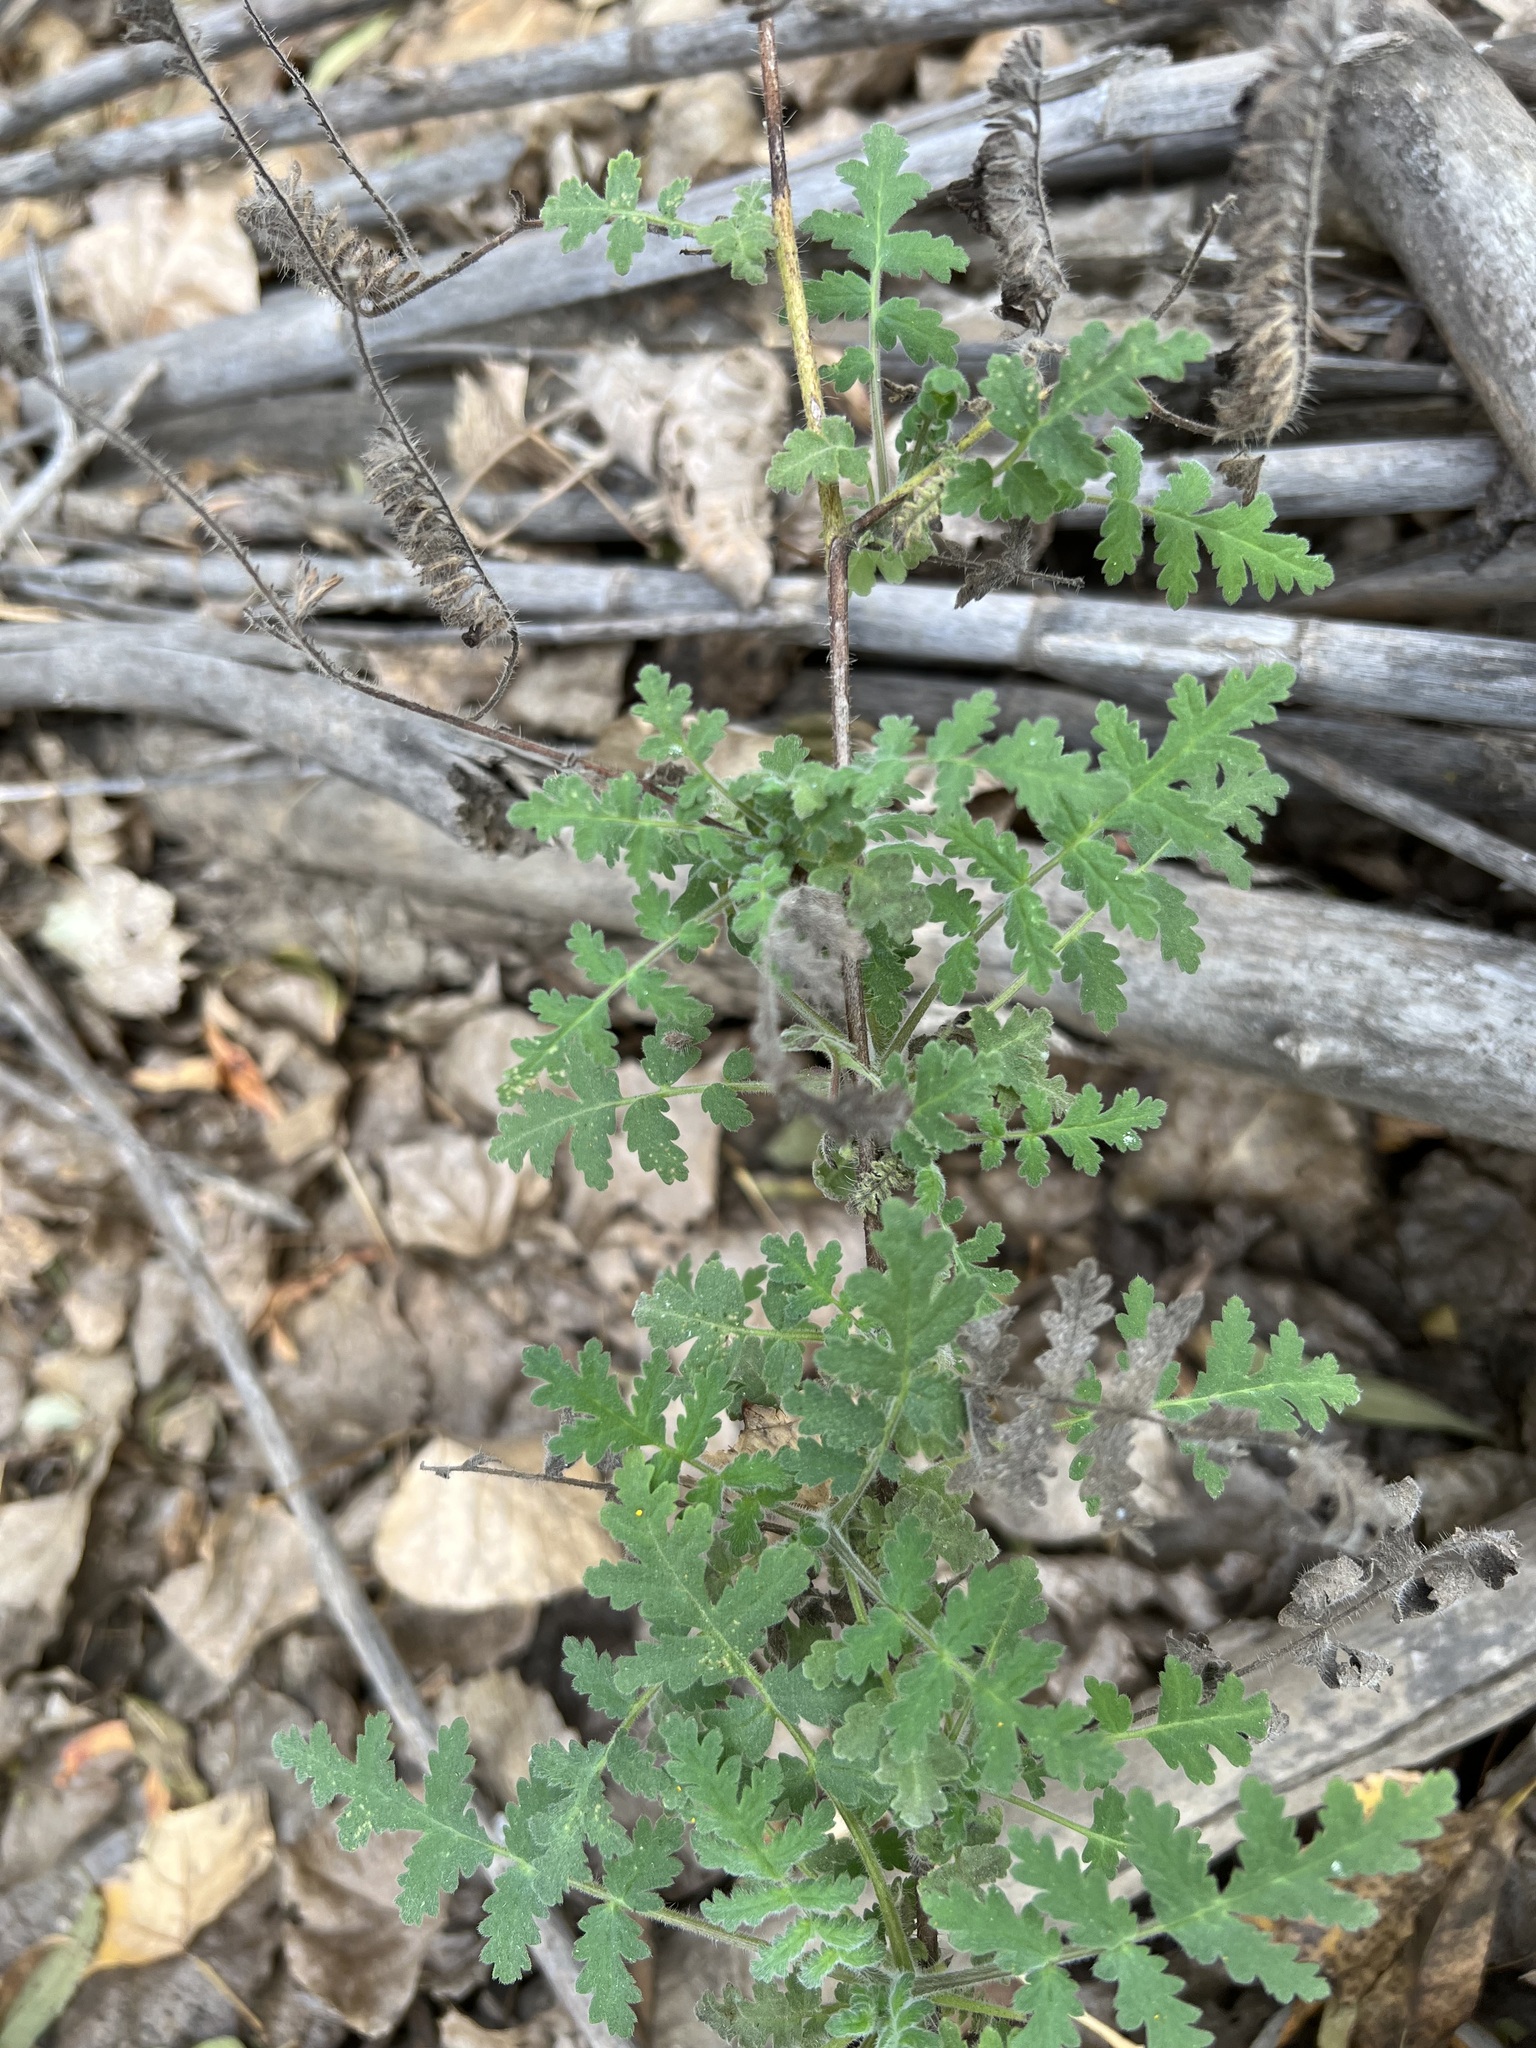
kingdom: Plantae
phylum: Tracheophyta
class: Magnoliopsida
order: Boraginales
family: Hydrophyllaceae
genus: Phacelia
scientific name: Phacelia ramosissima
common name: Branching phacelia
